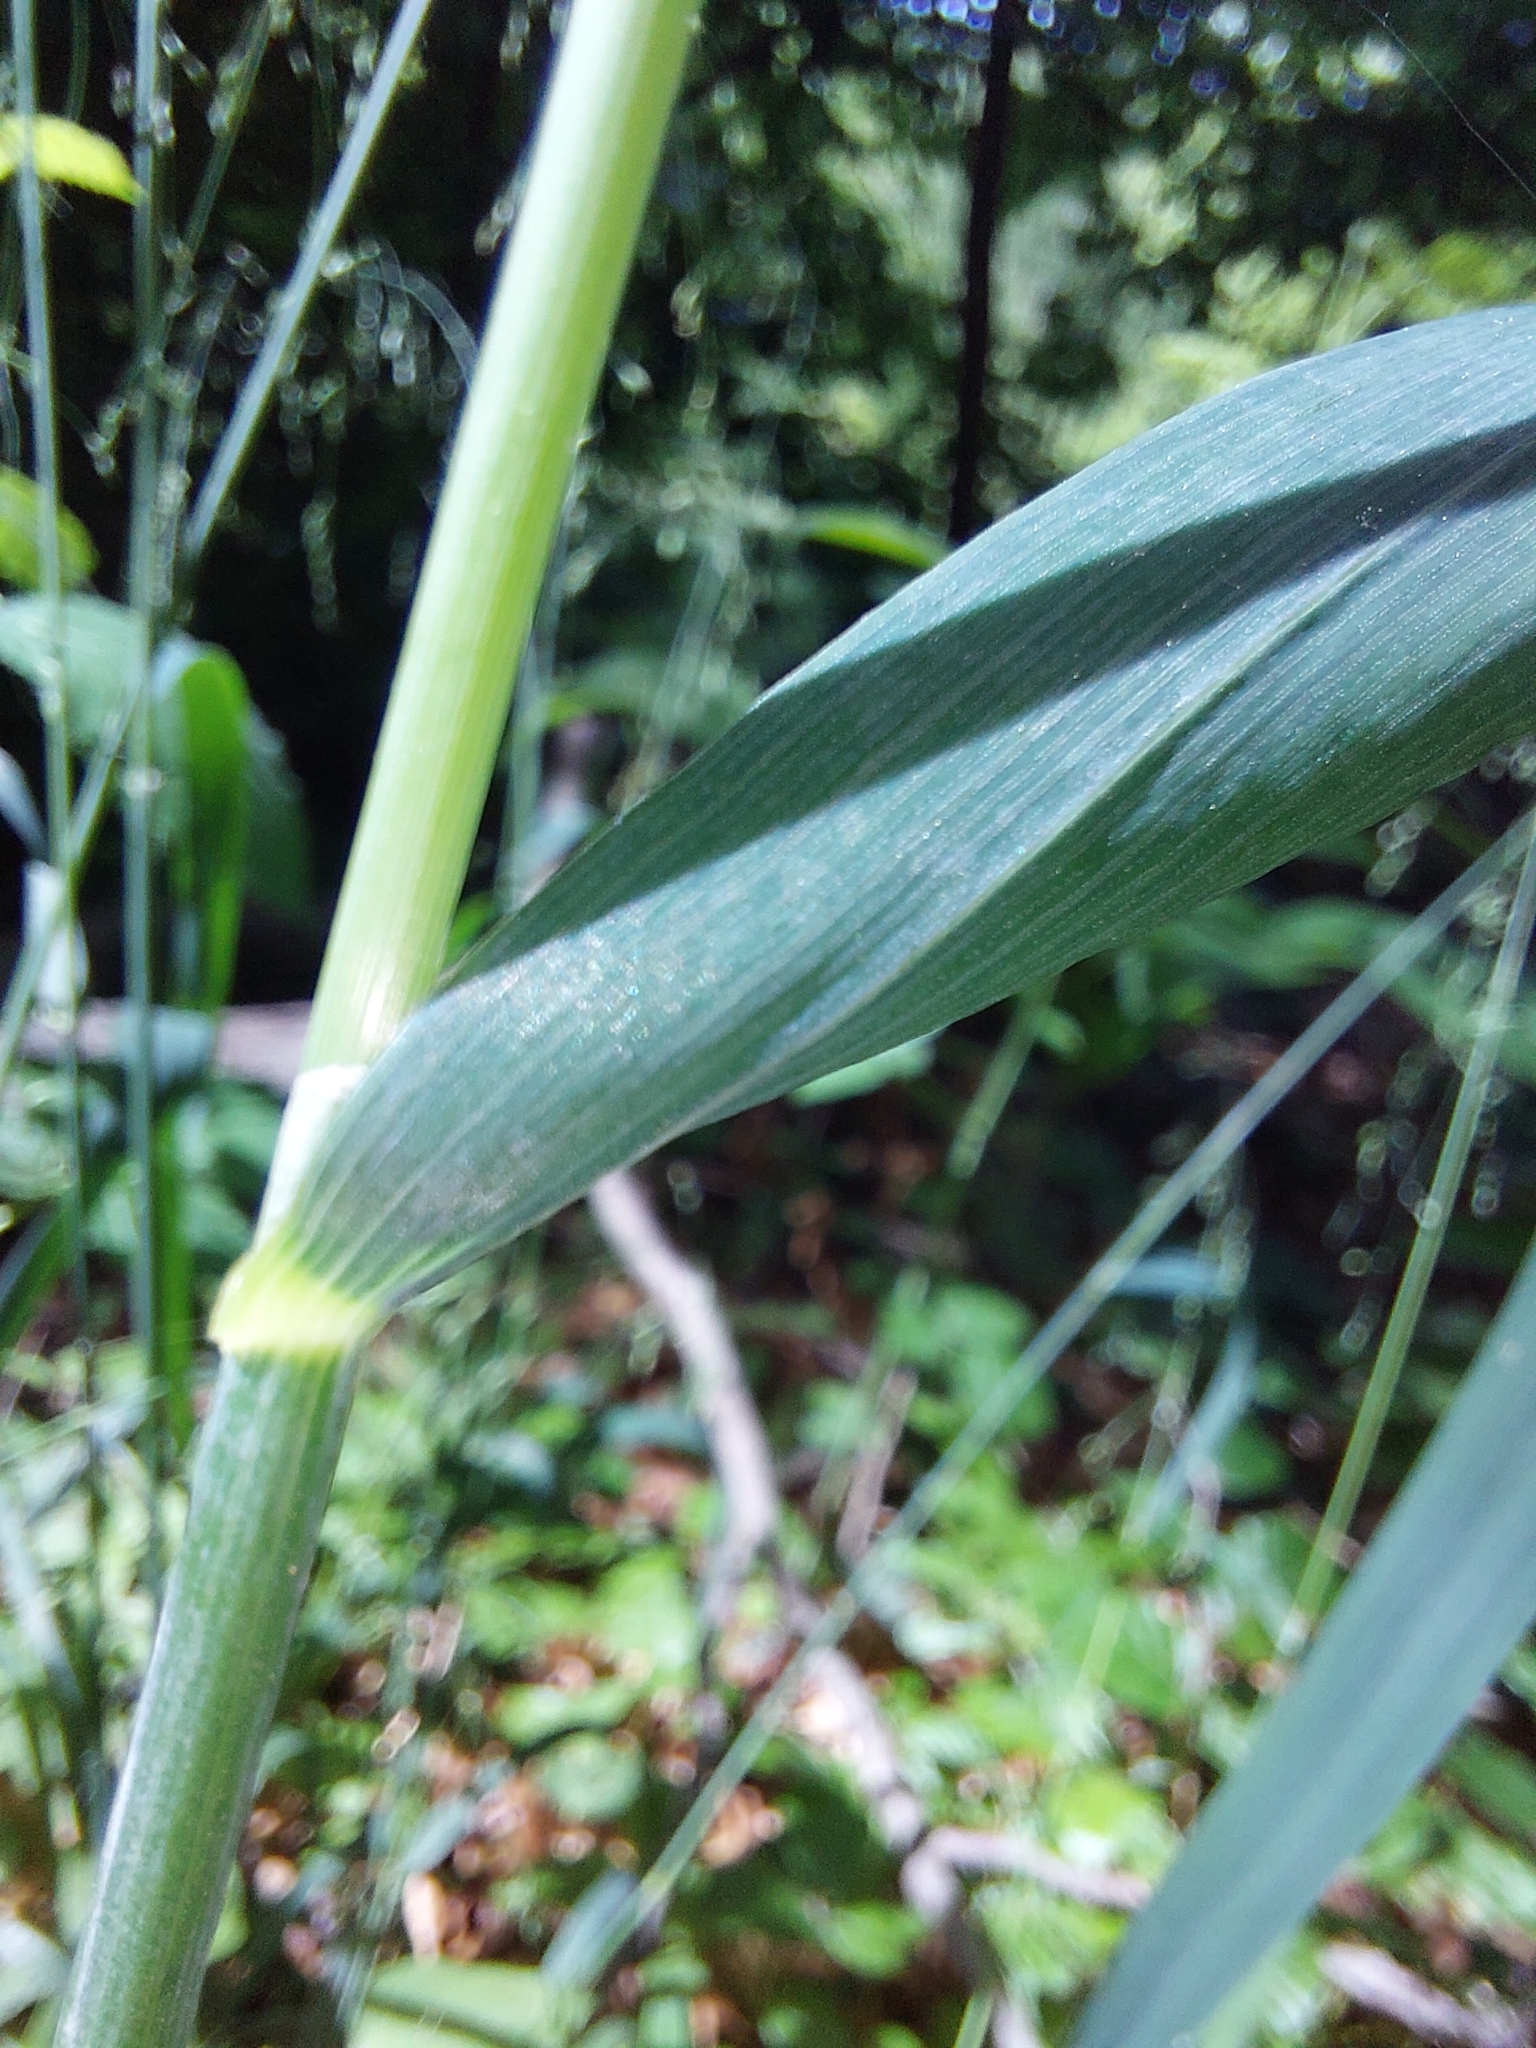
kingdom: Plantae
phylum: Tracheophyta
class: Liliopsida
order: Poales
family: Poaceae
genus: Milium
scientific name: Milium effusum
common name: Wood millet
